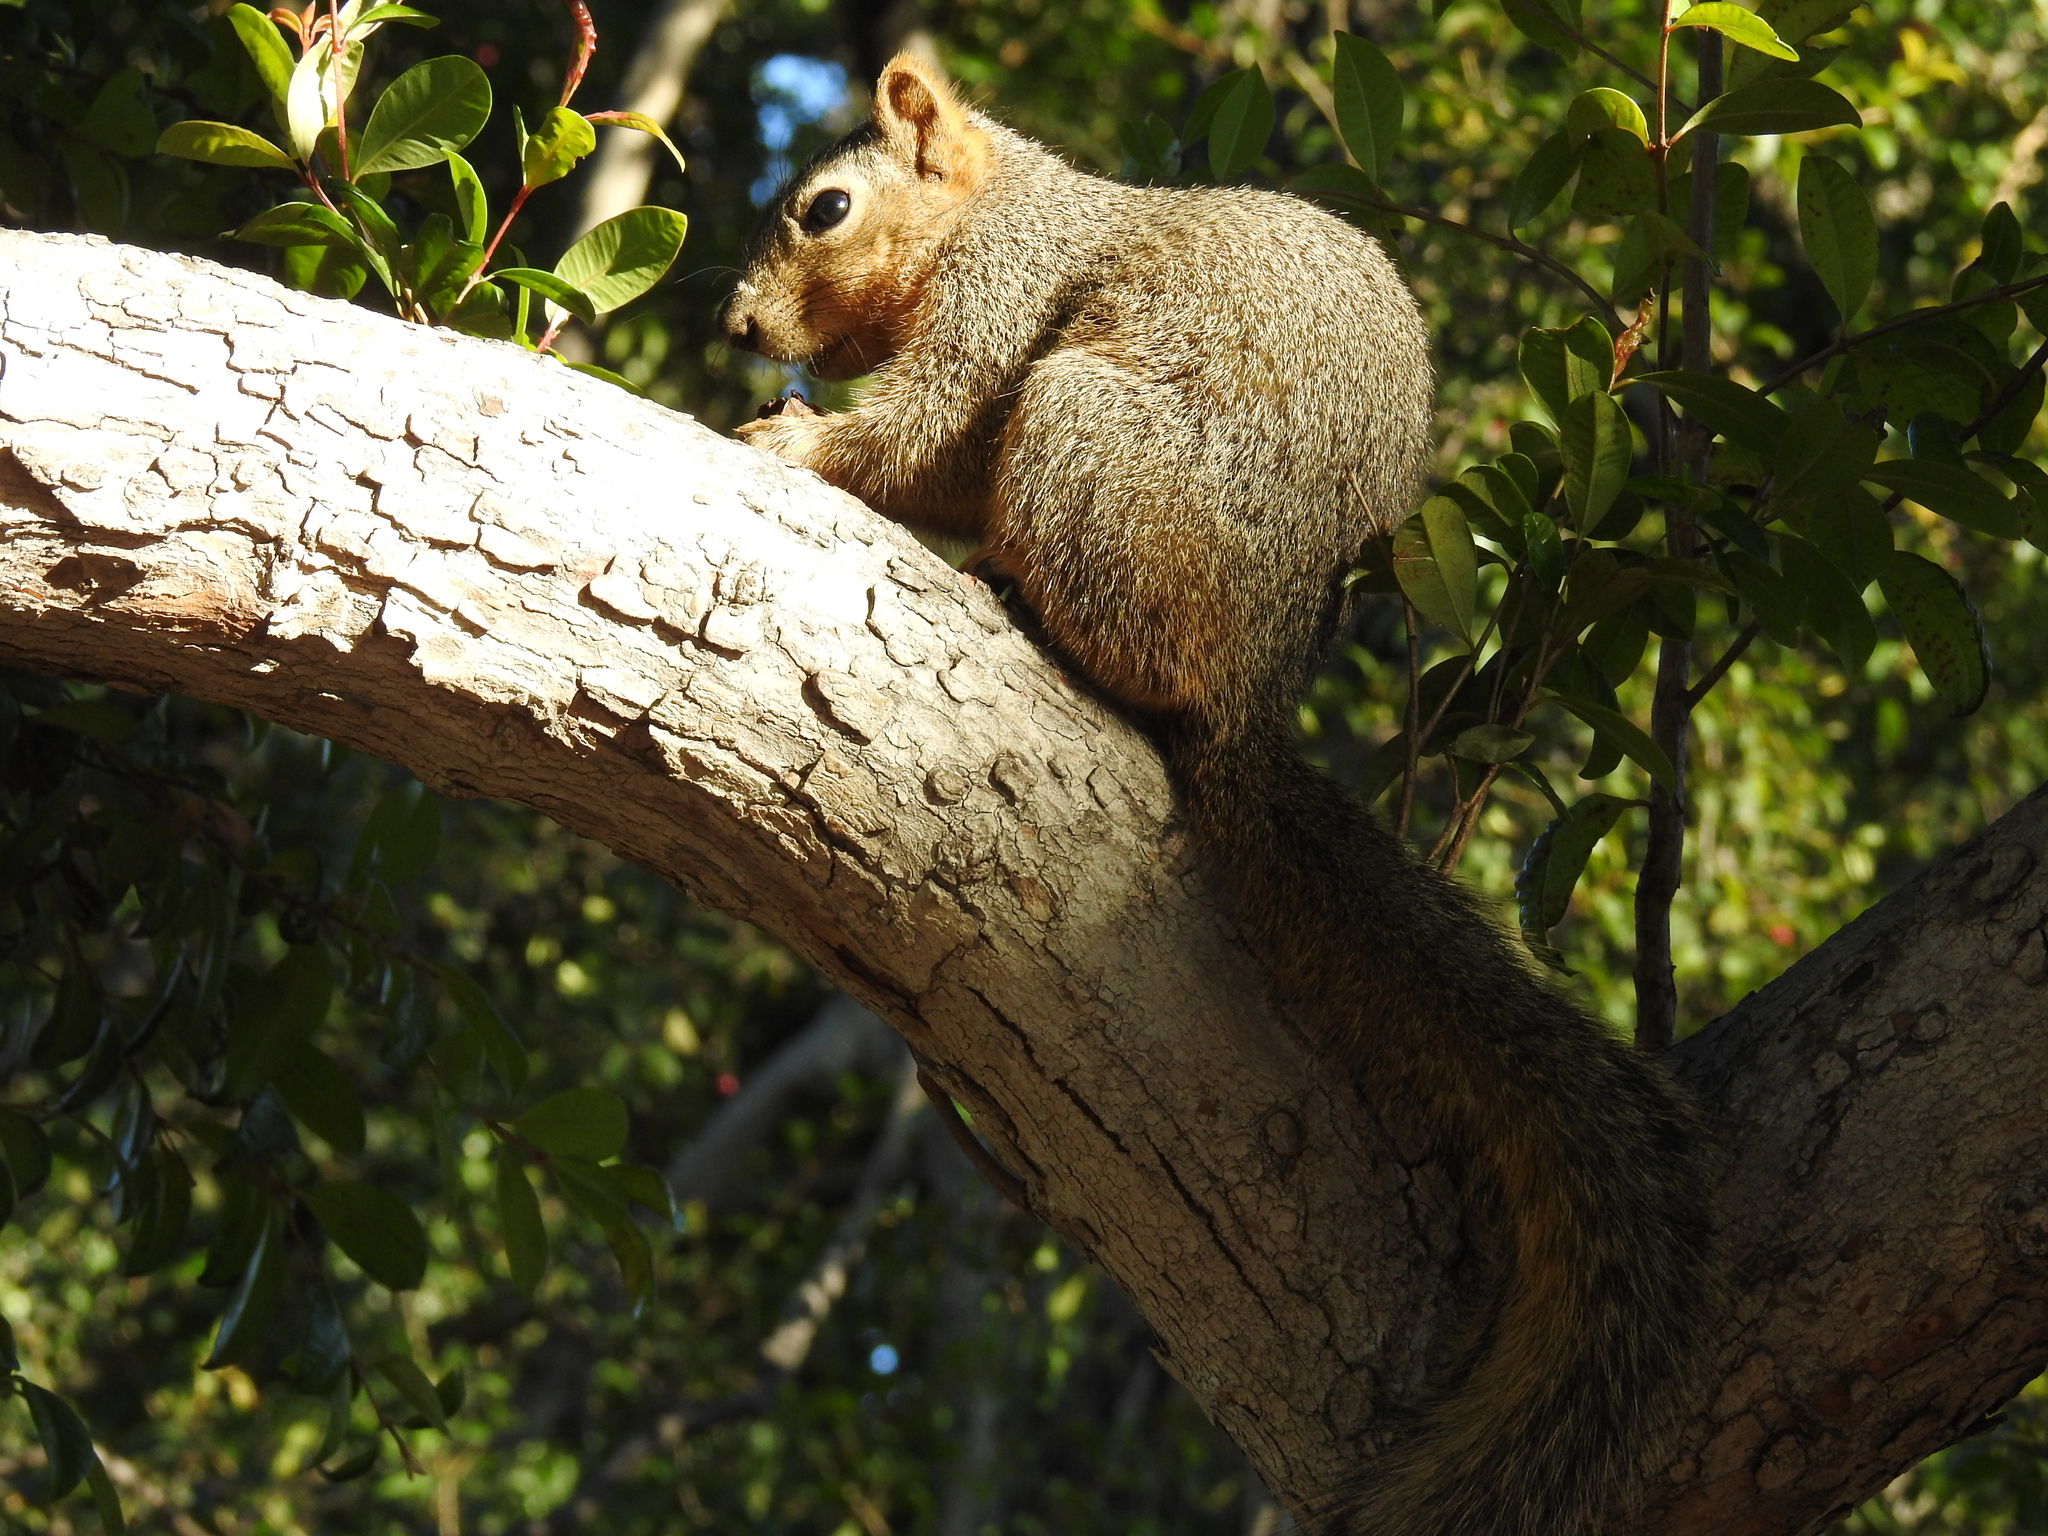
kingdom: Animalia
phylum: Chordata
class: Mammalia
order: Rodentia
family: Sciuridae
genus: Sciurus
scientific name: Sciurus niger
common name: Fox squirrel
